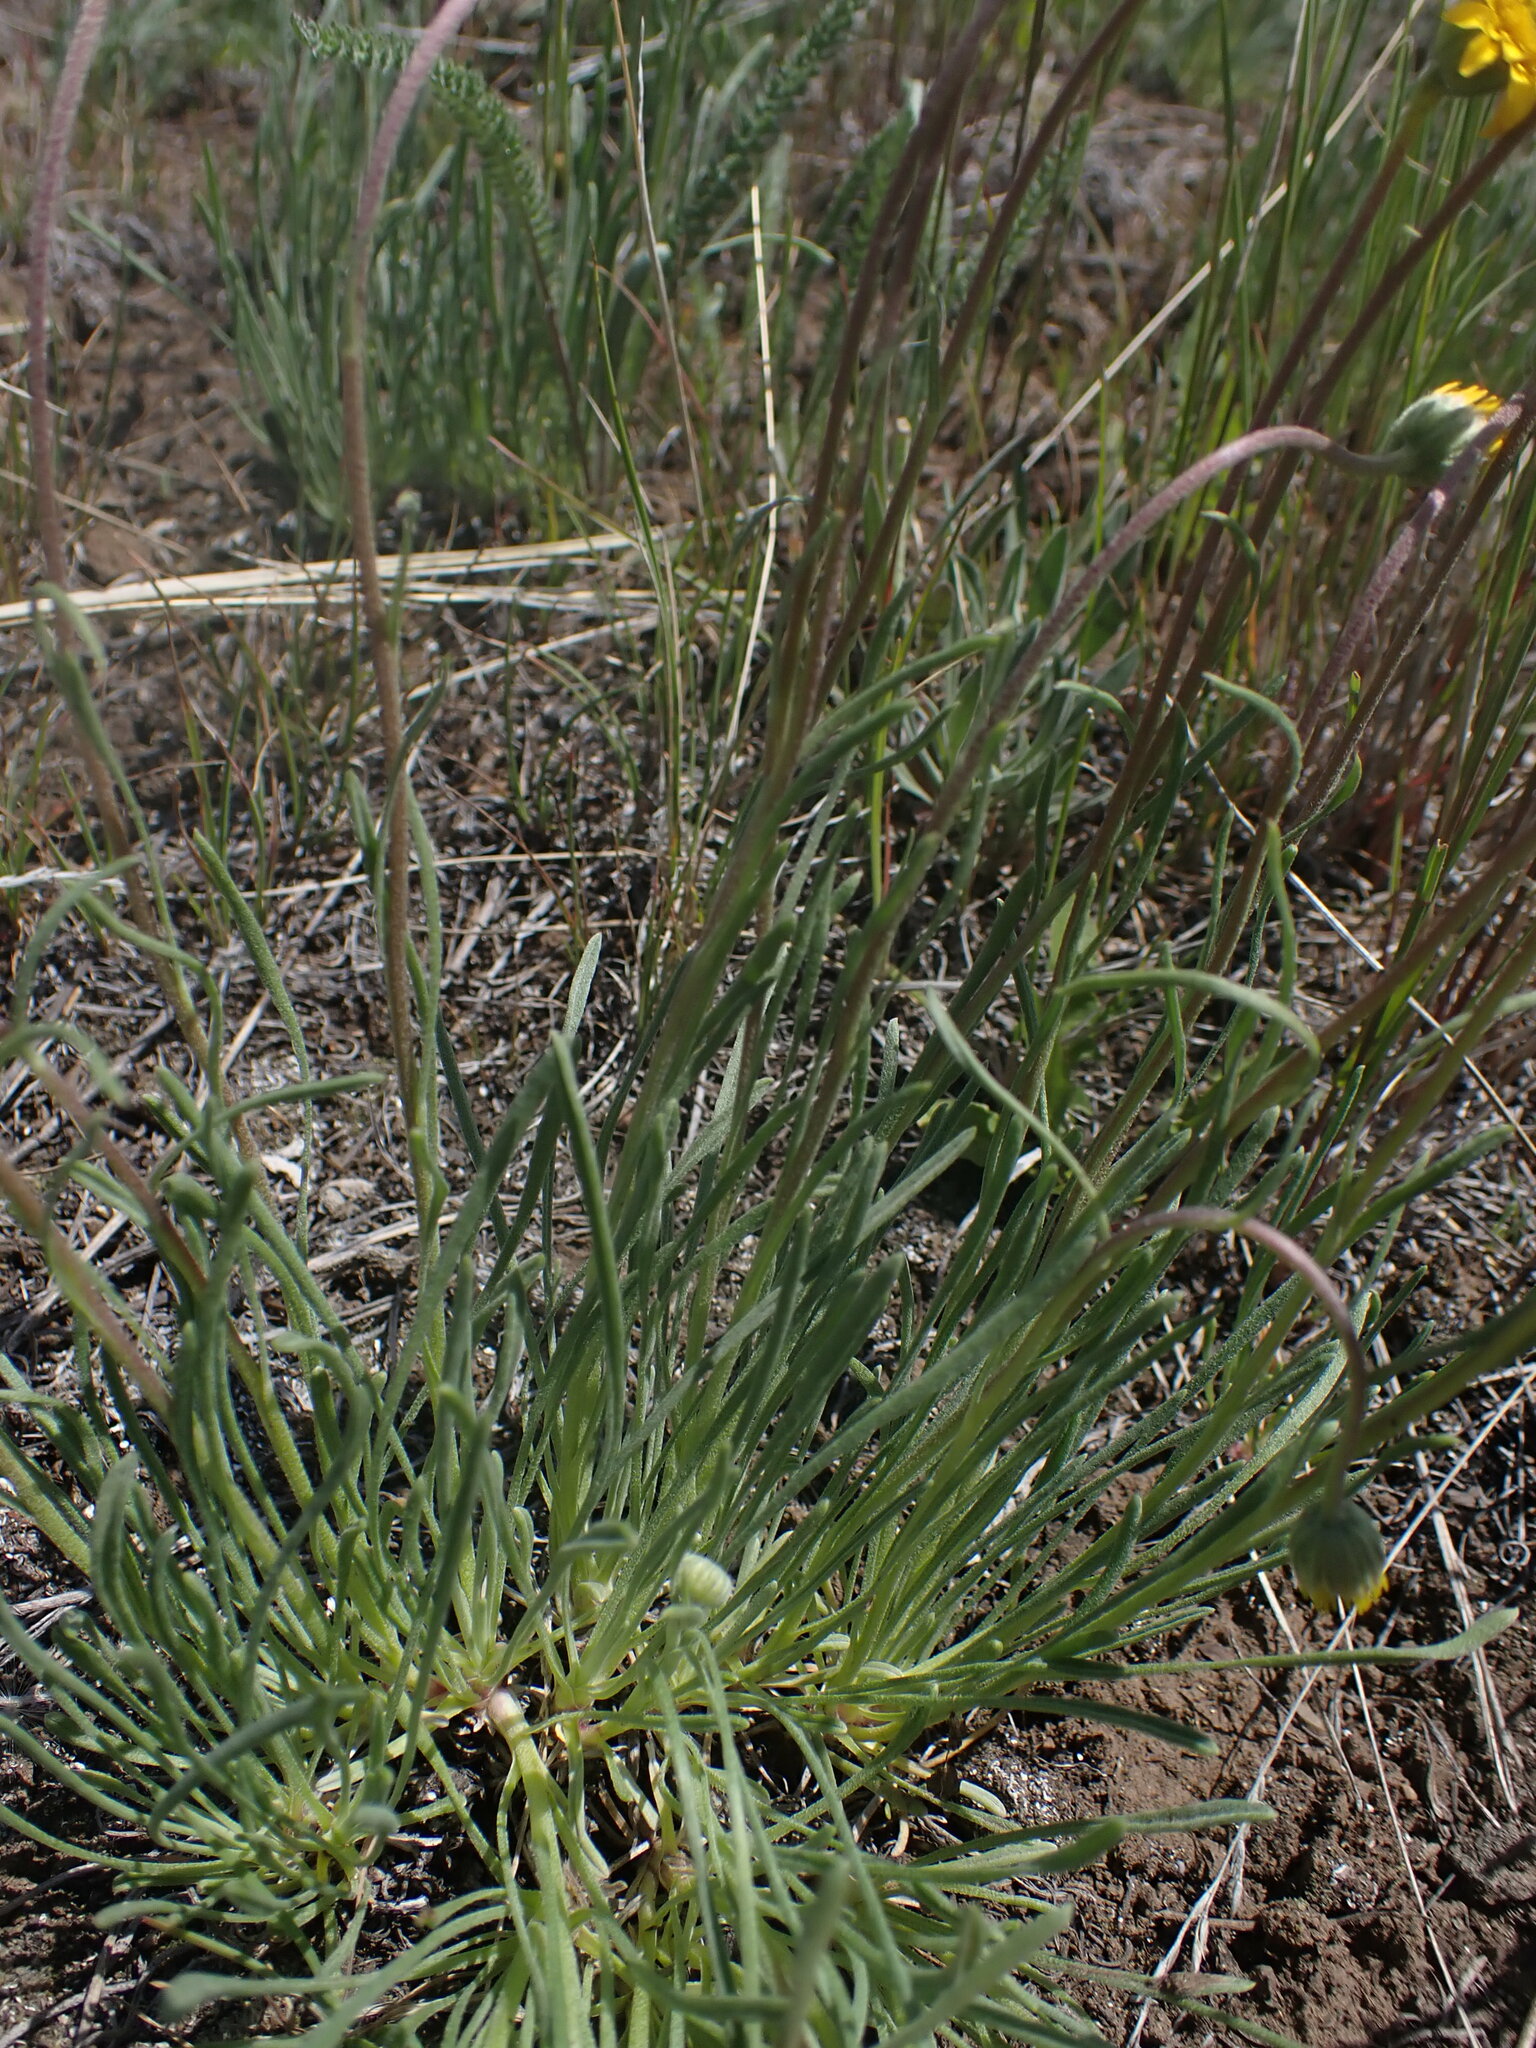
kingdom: Plantae
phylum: Tracheophyta
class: Magnoliopsida
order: Asterales
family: Asteraceae
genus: Erigeron
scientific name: Erigeron linearis
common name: Desert yellow fleabane
